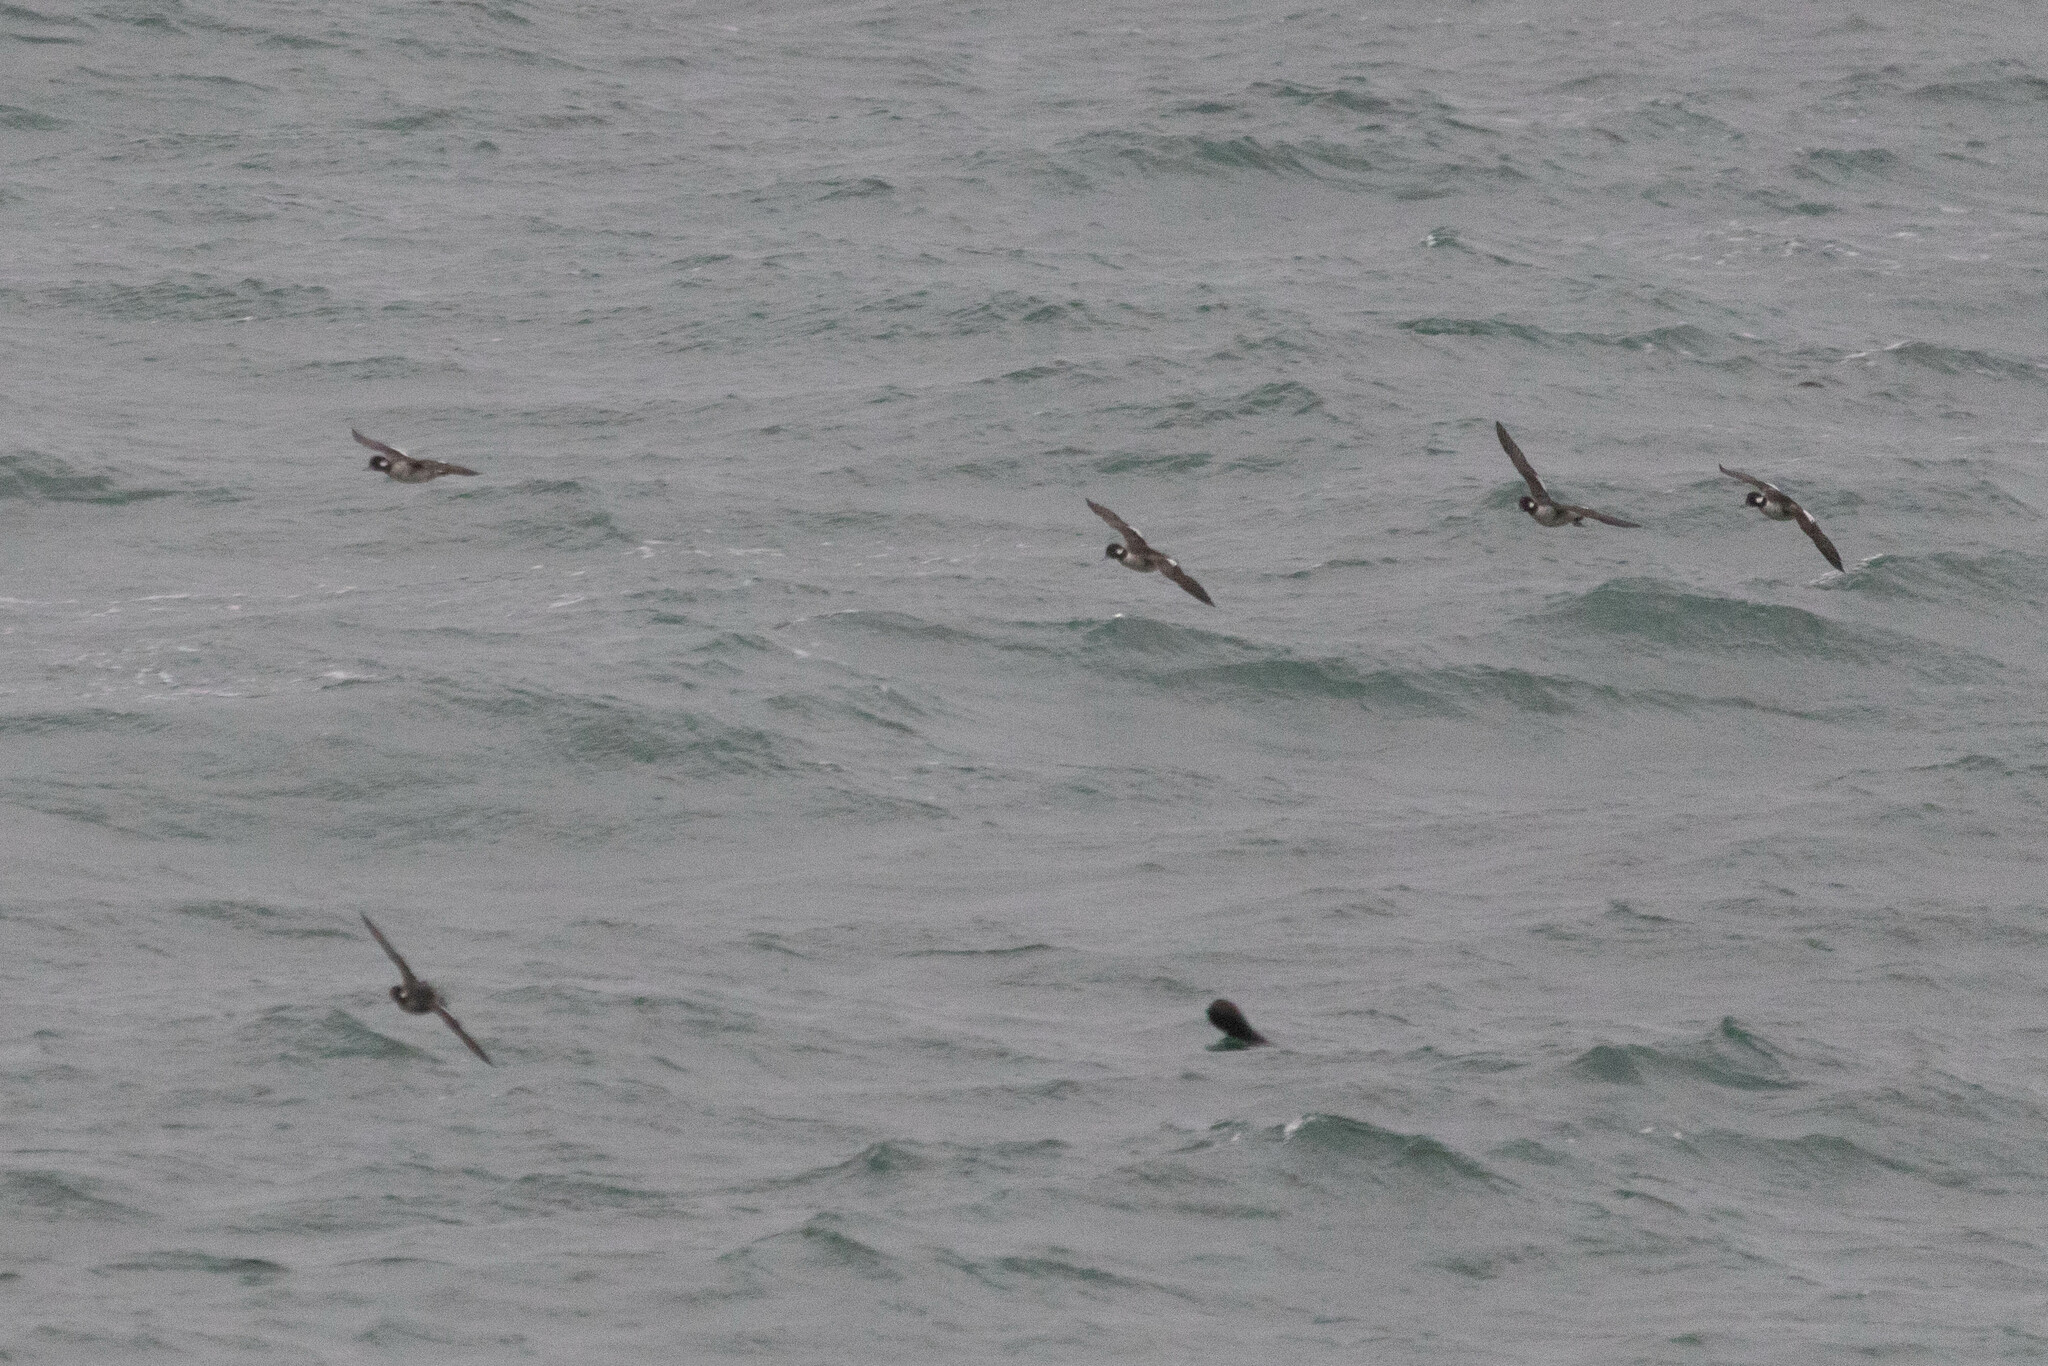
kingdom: Animalia
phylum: Chordata
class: Aves
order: Anseriformes
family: Anatidae
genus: Bucephala
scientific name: Bucephala albeola
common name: Bufflehead
